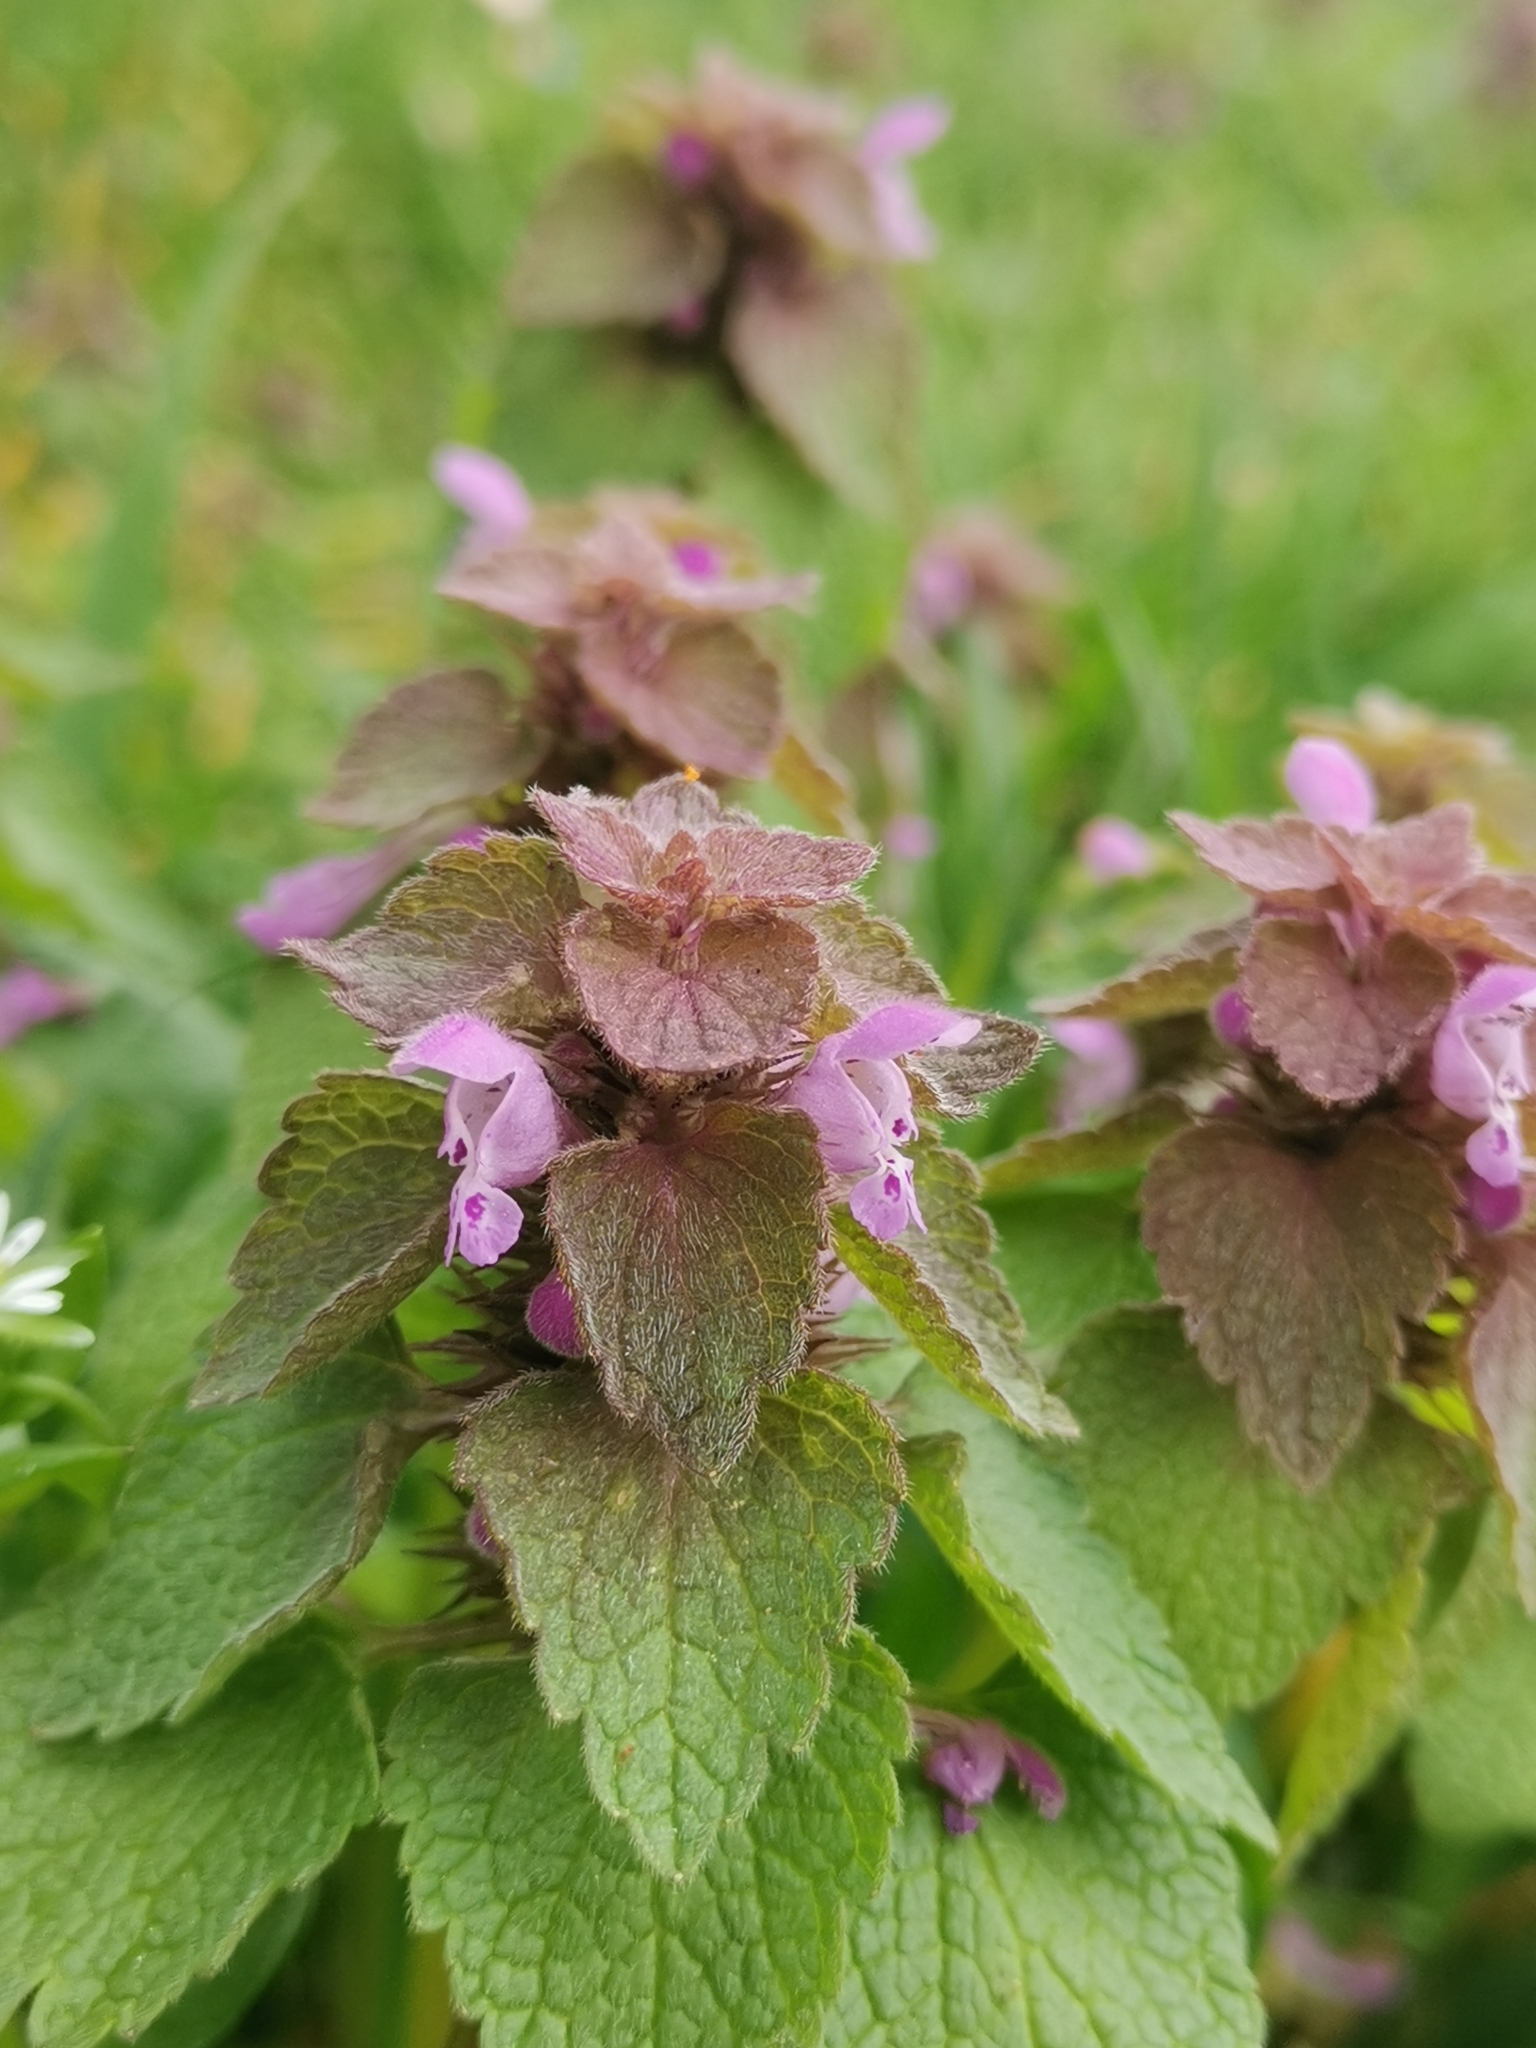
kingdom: Plantae
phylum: Tracheophyta
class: Magnoliopsida
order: Lamiales
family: Lamiaceae
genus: Lamium
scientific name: Lamium purpureum
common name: Red dead-nettle
